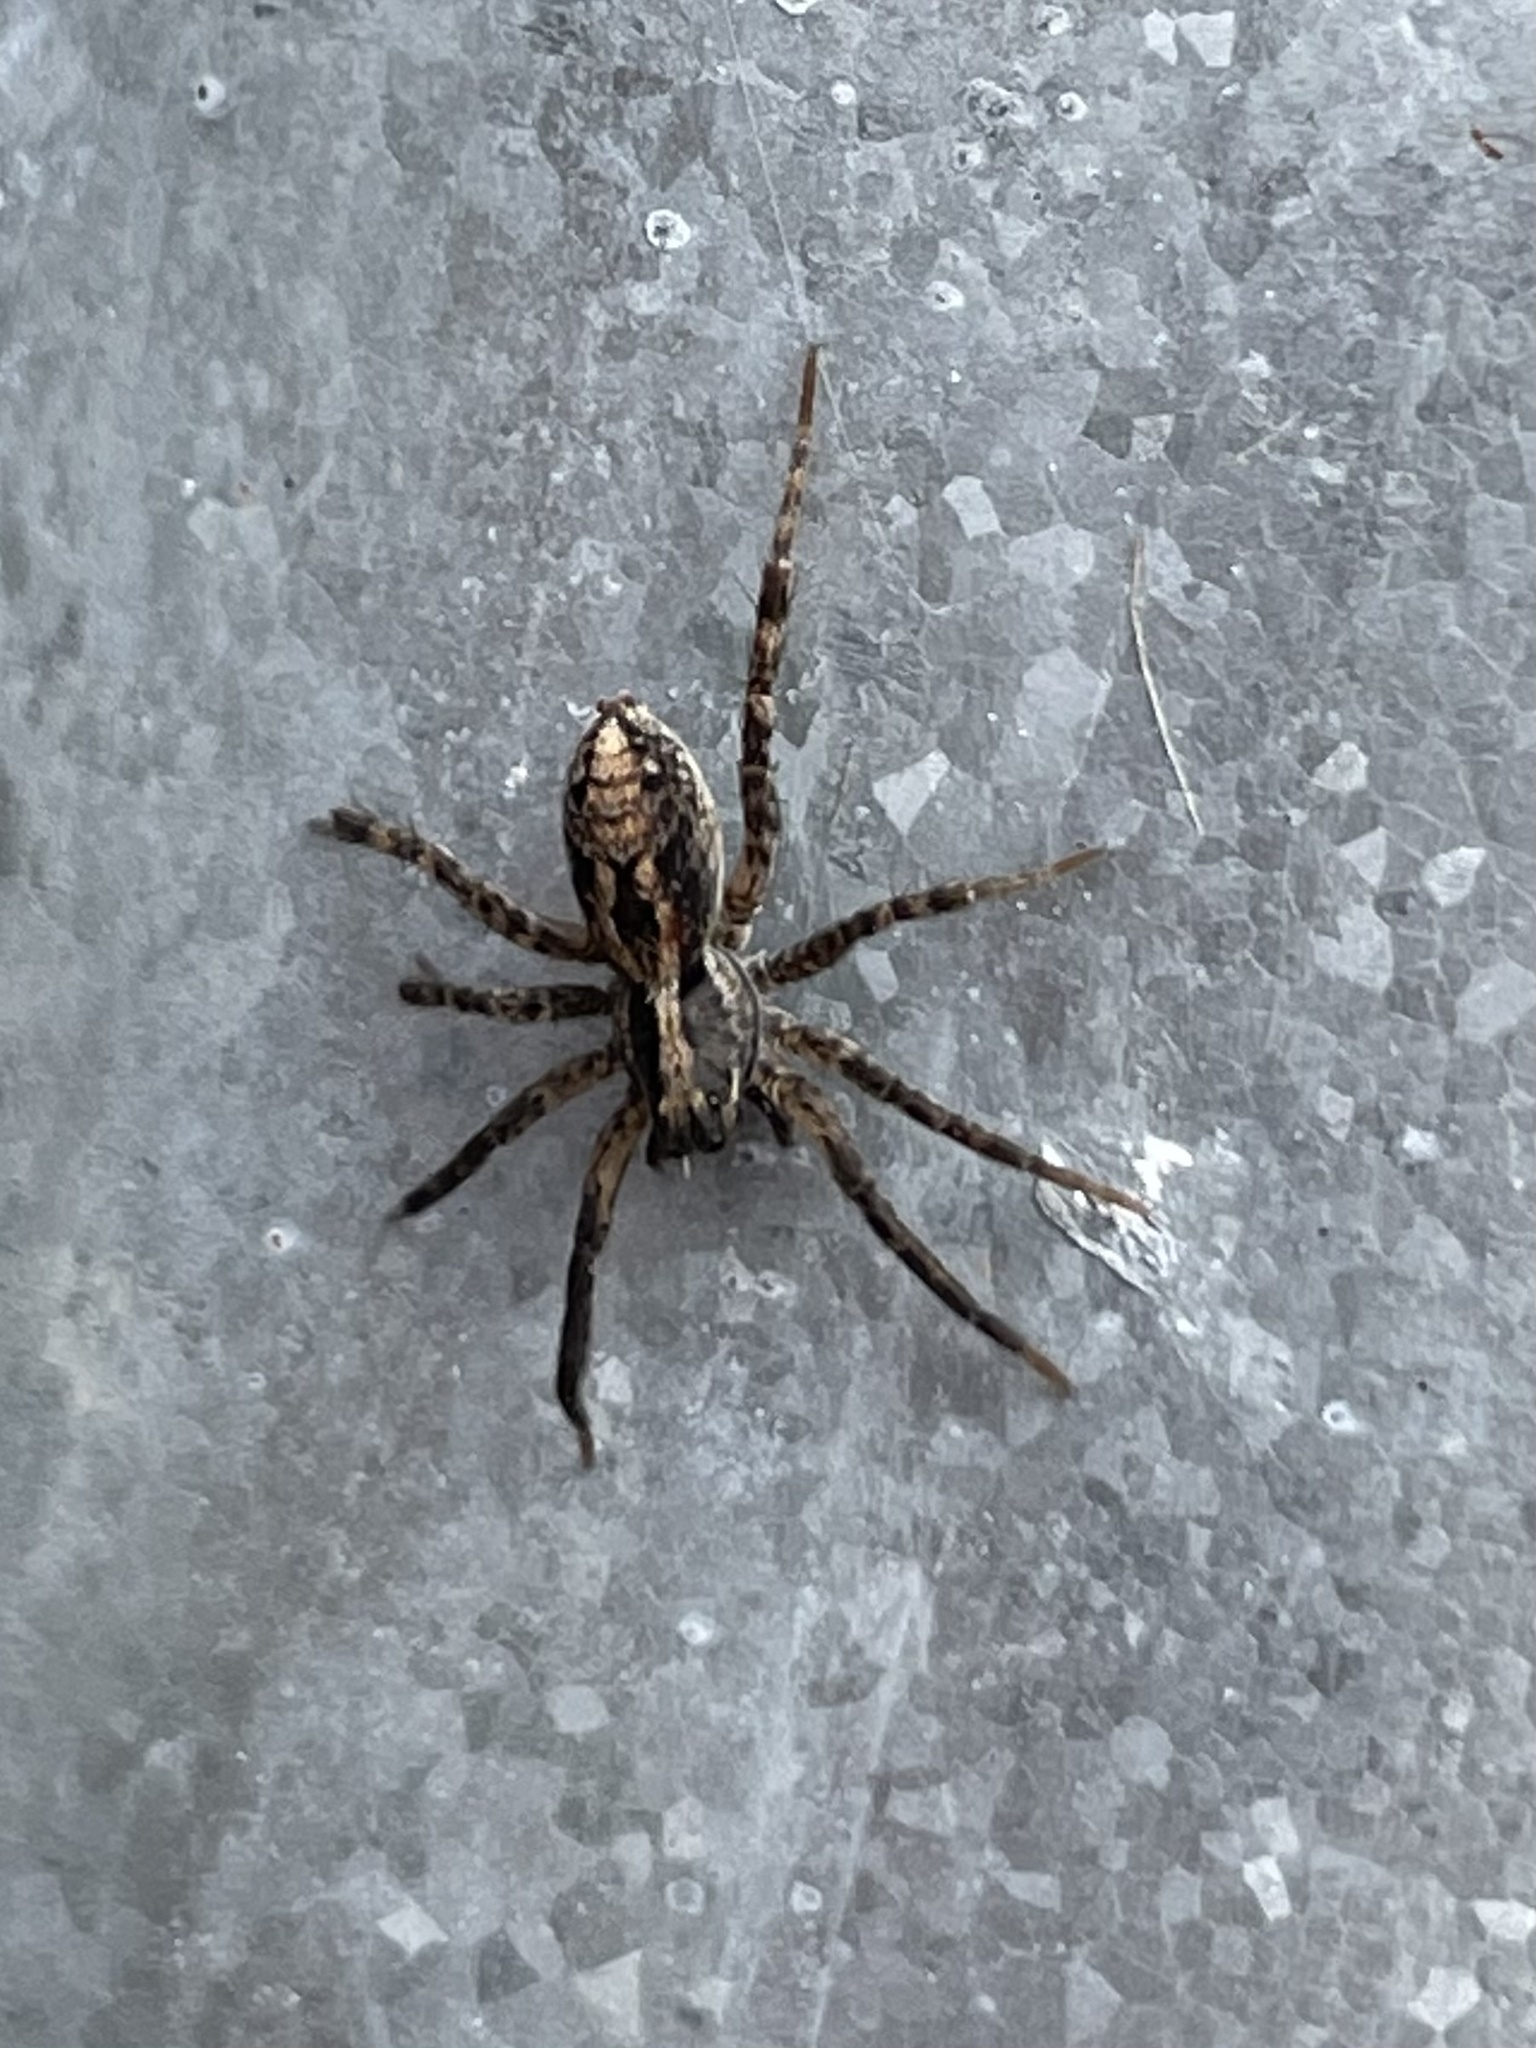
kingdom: Animalia
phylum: Arthropoda
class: Arachnida
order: Araneae
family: Lycosidae
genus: Schizocosa
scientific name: Schizocosa avida
